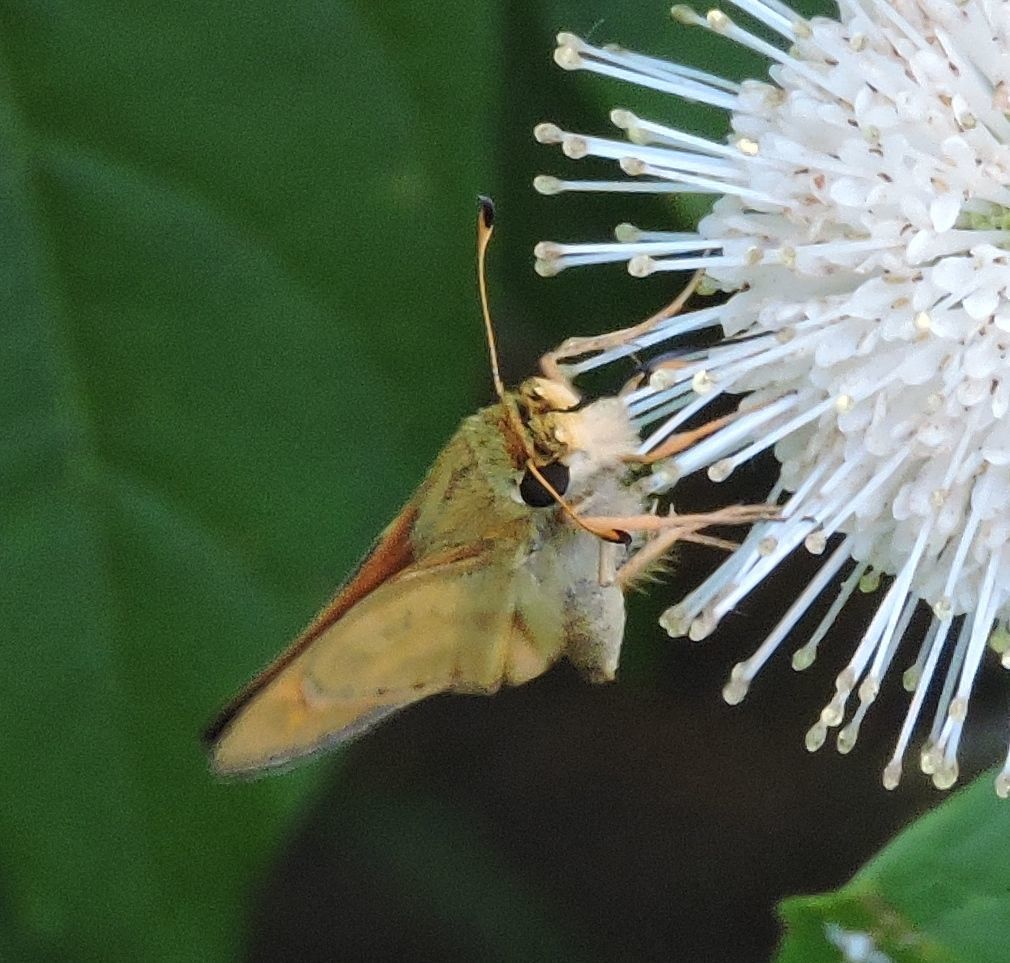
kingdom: Animalia
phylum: Arthropoda
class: Insecta
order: Lepidoptera
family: Hesperiidae
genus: Atalopedes
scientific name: Atalopedes
